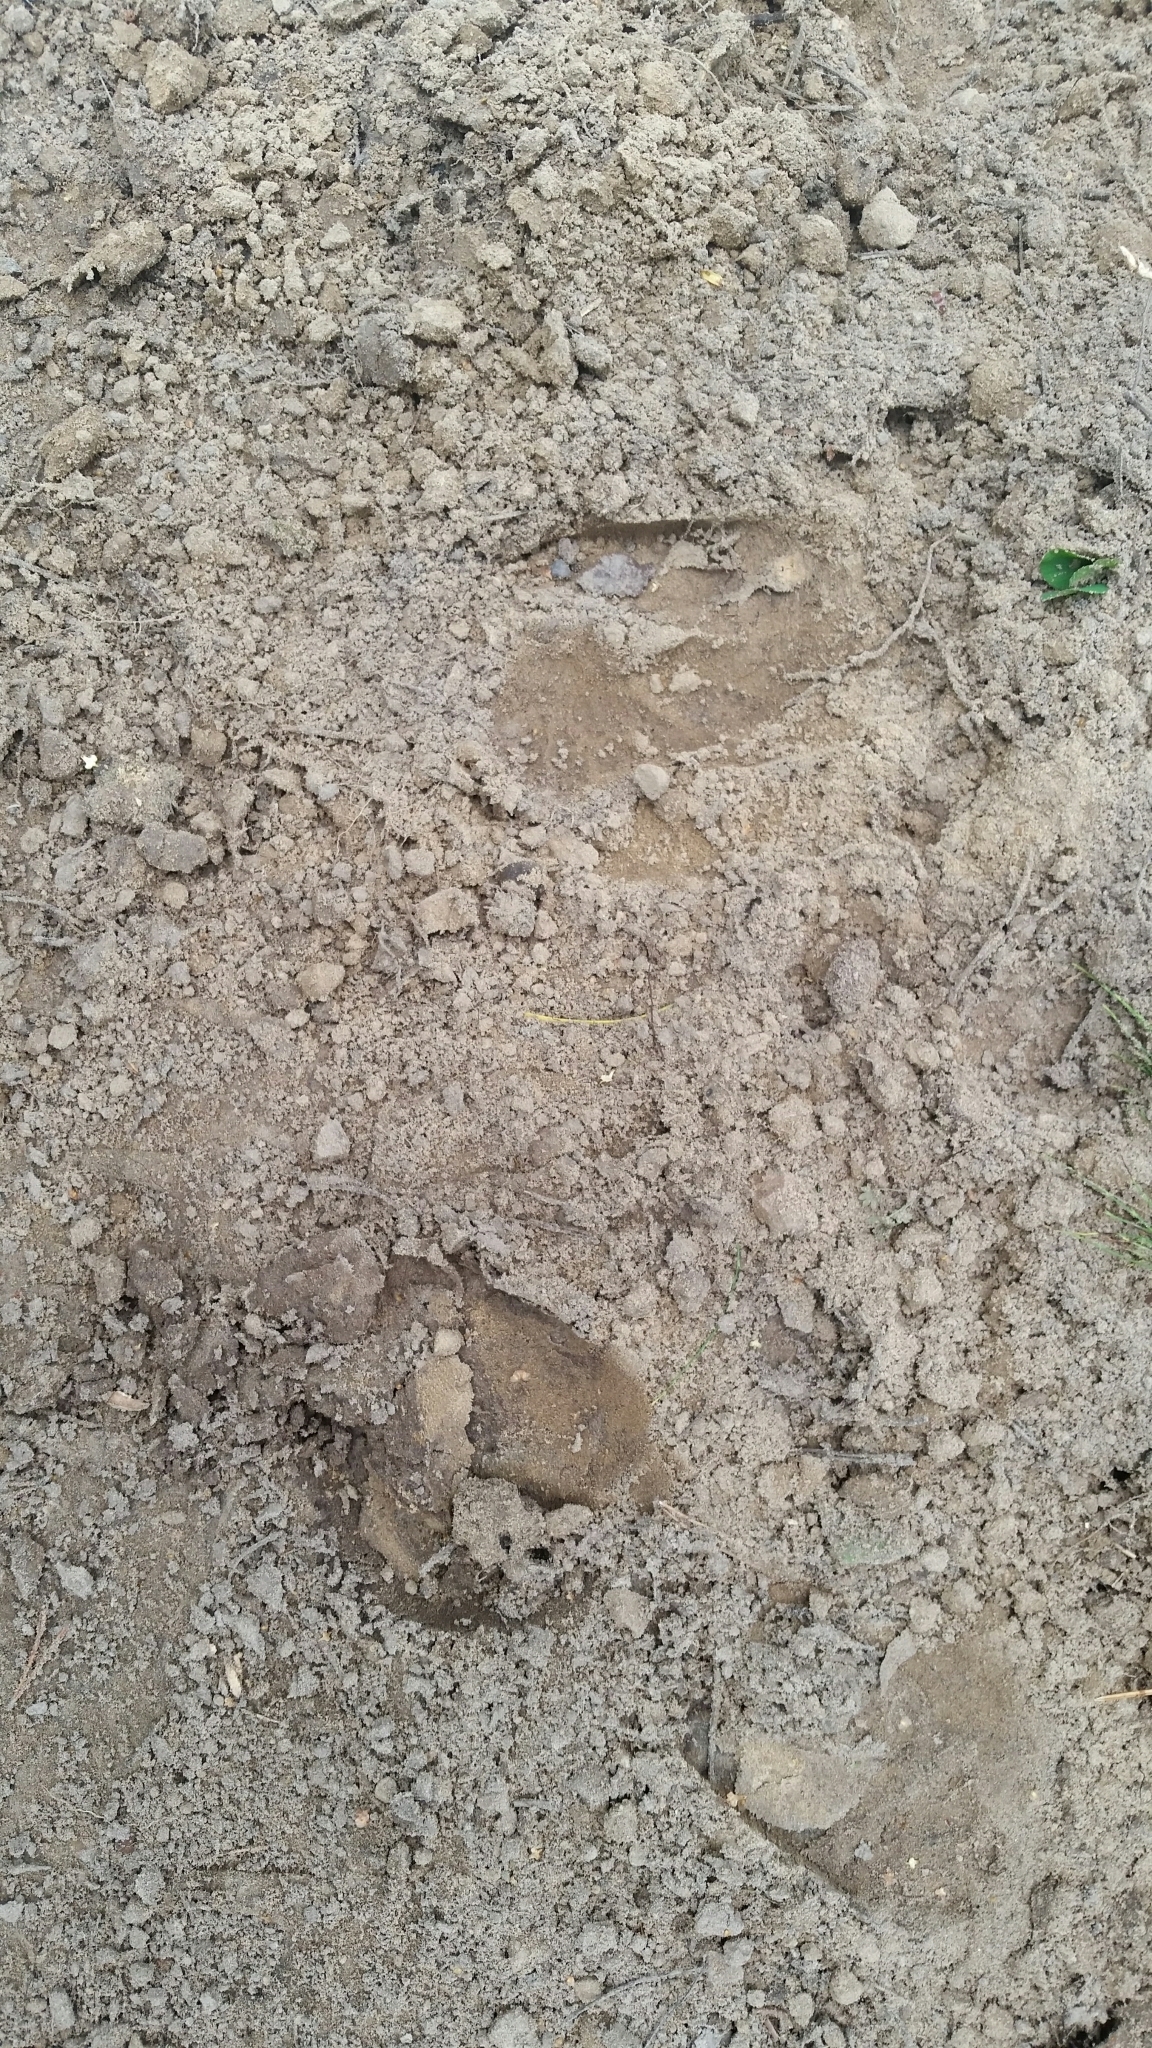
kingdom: Animalia
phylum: Chordata
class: Mammalia
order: Artiodactyla
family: Suidae
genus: Sus
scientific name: Sus scrofa
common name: Wild boar
